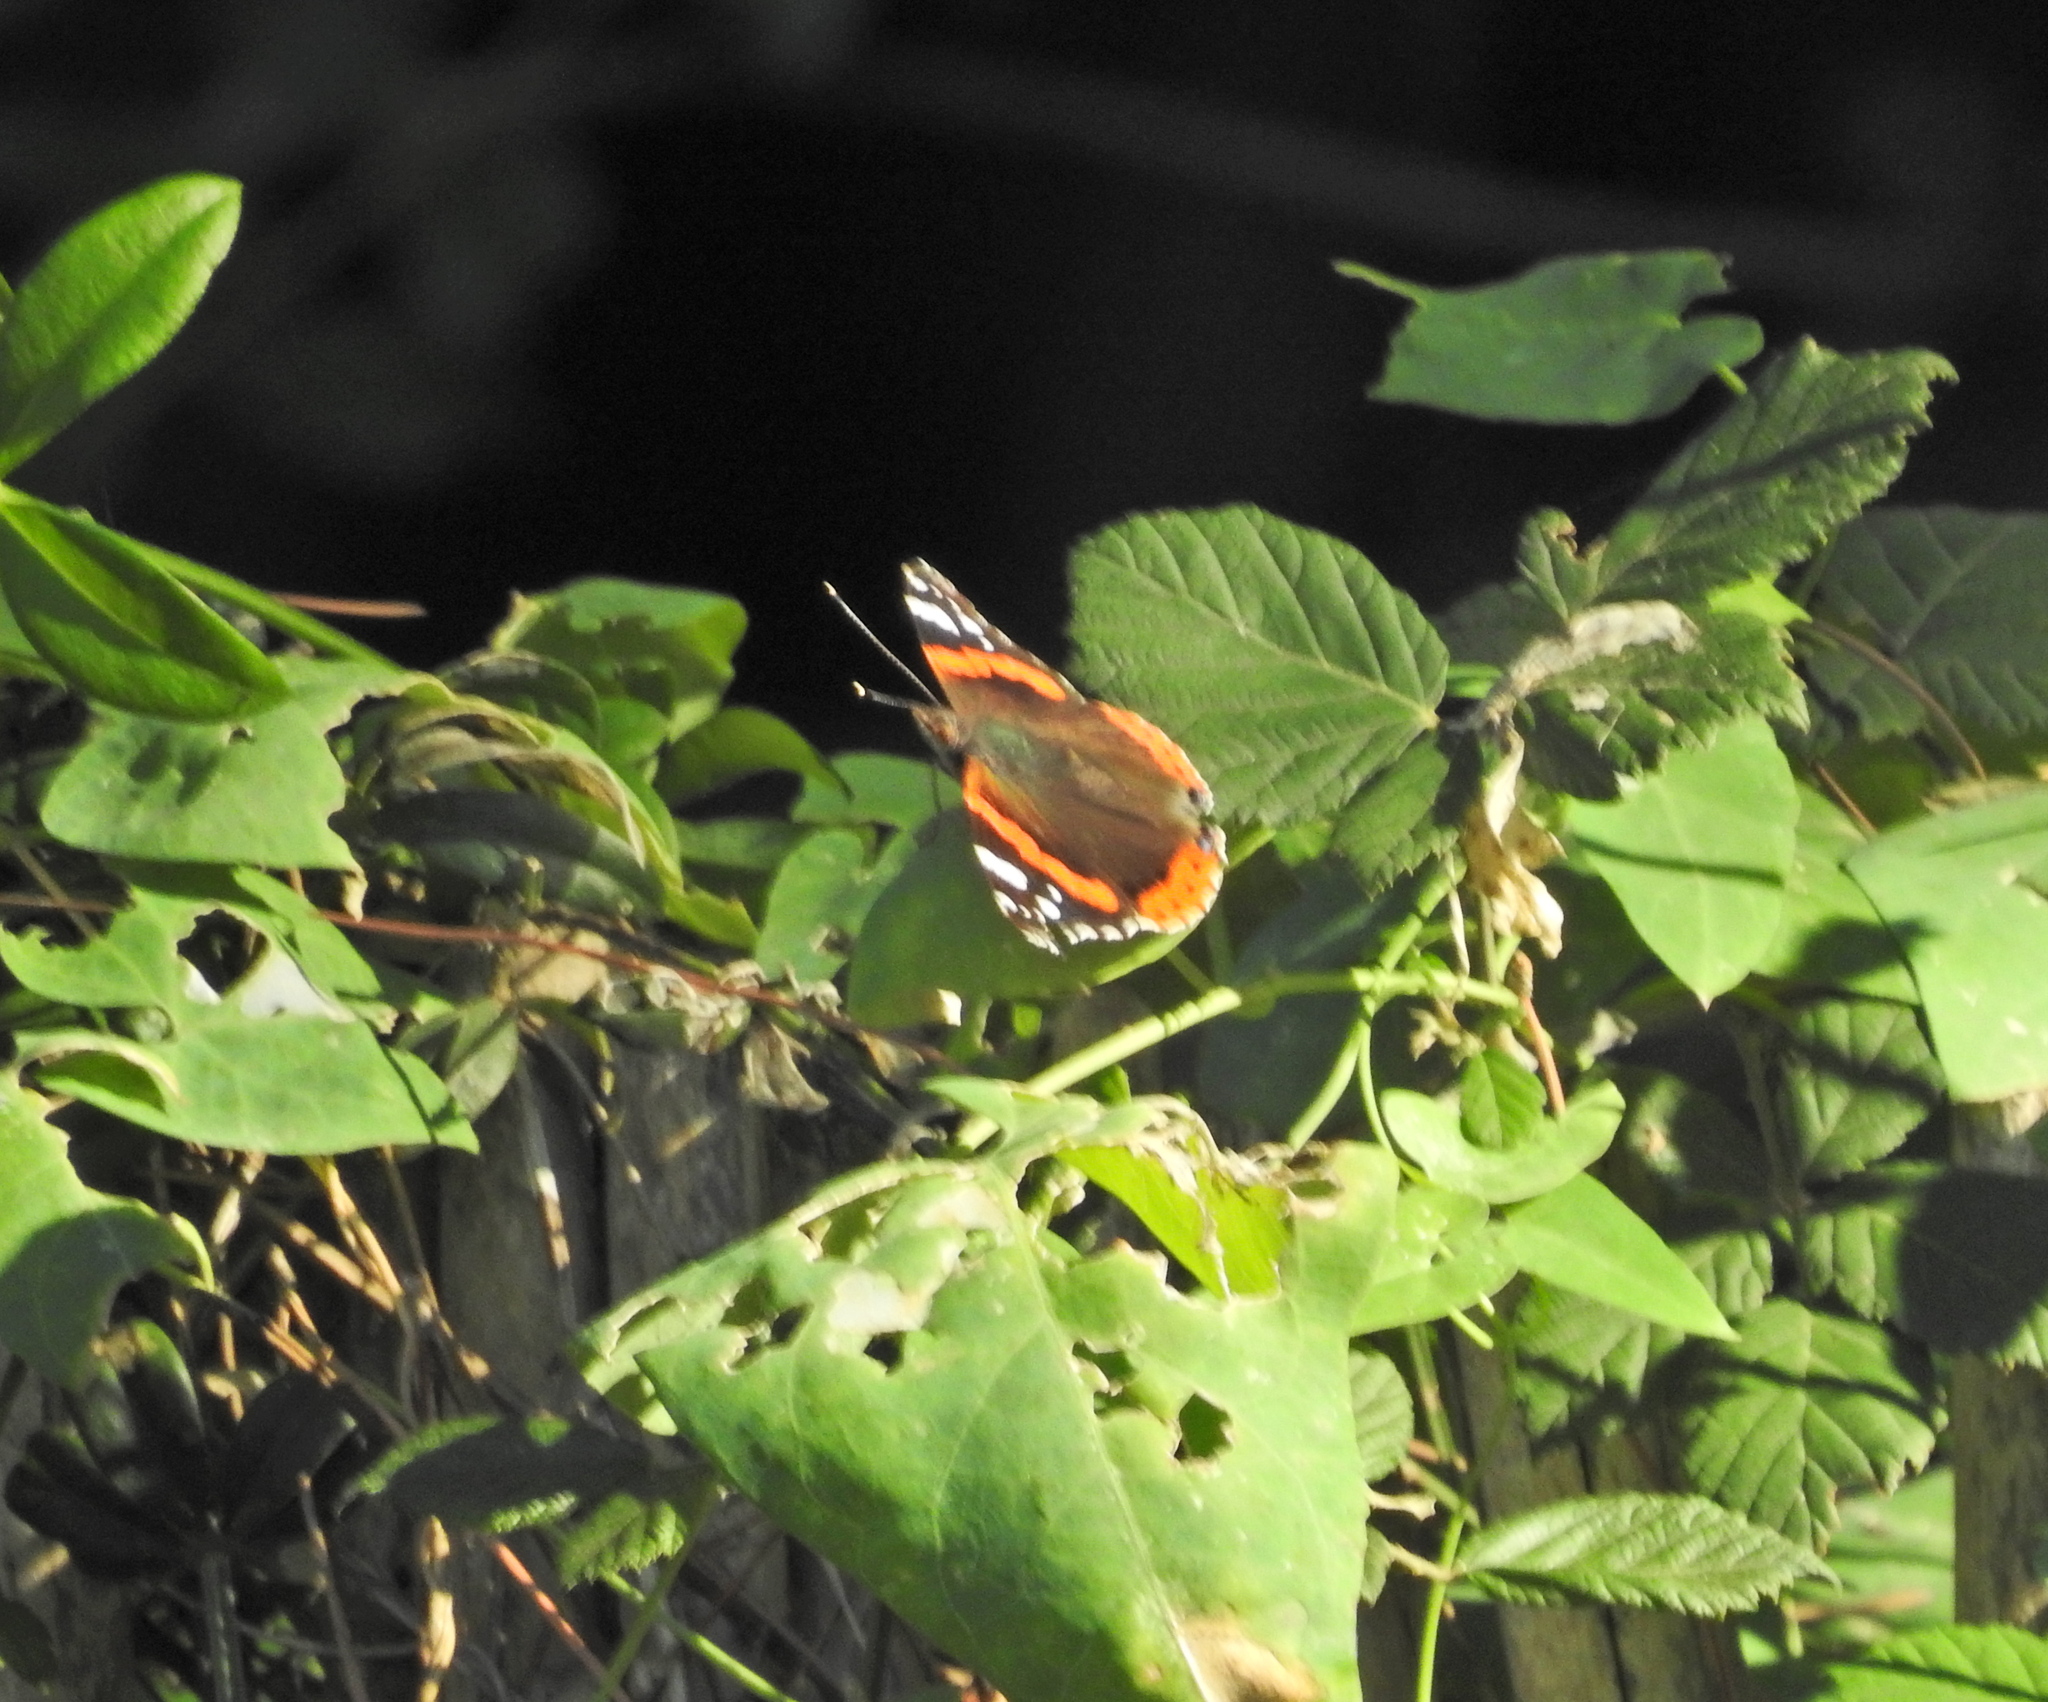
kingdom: Animalia
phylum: Arthropoda
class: Insecta
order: Lepidoptera
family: Nymphalidae
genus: Vanessa
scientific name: Vanessa atalanta
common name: Red admiral
